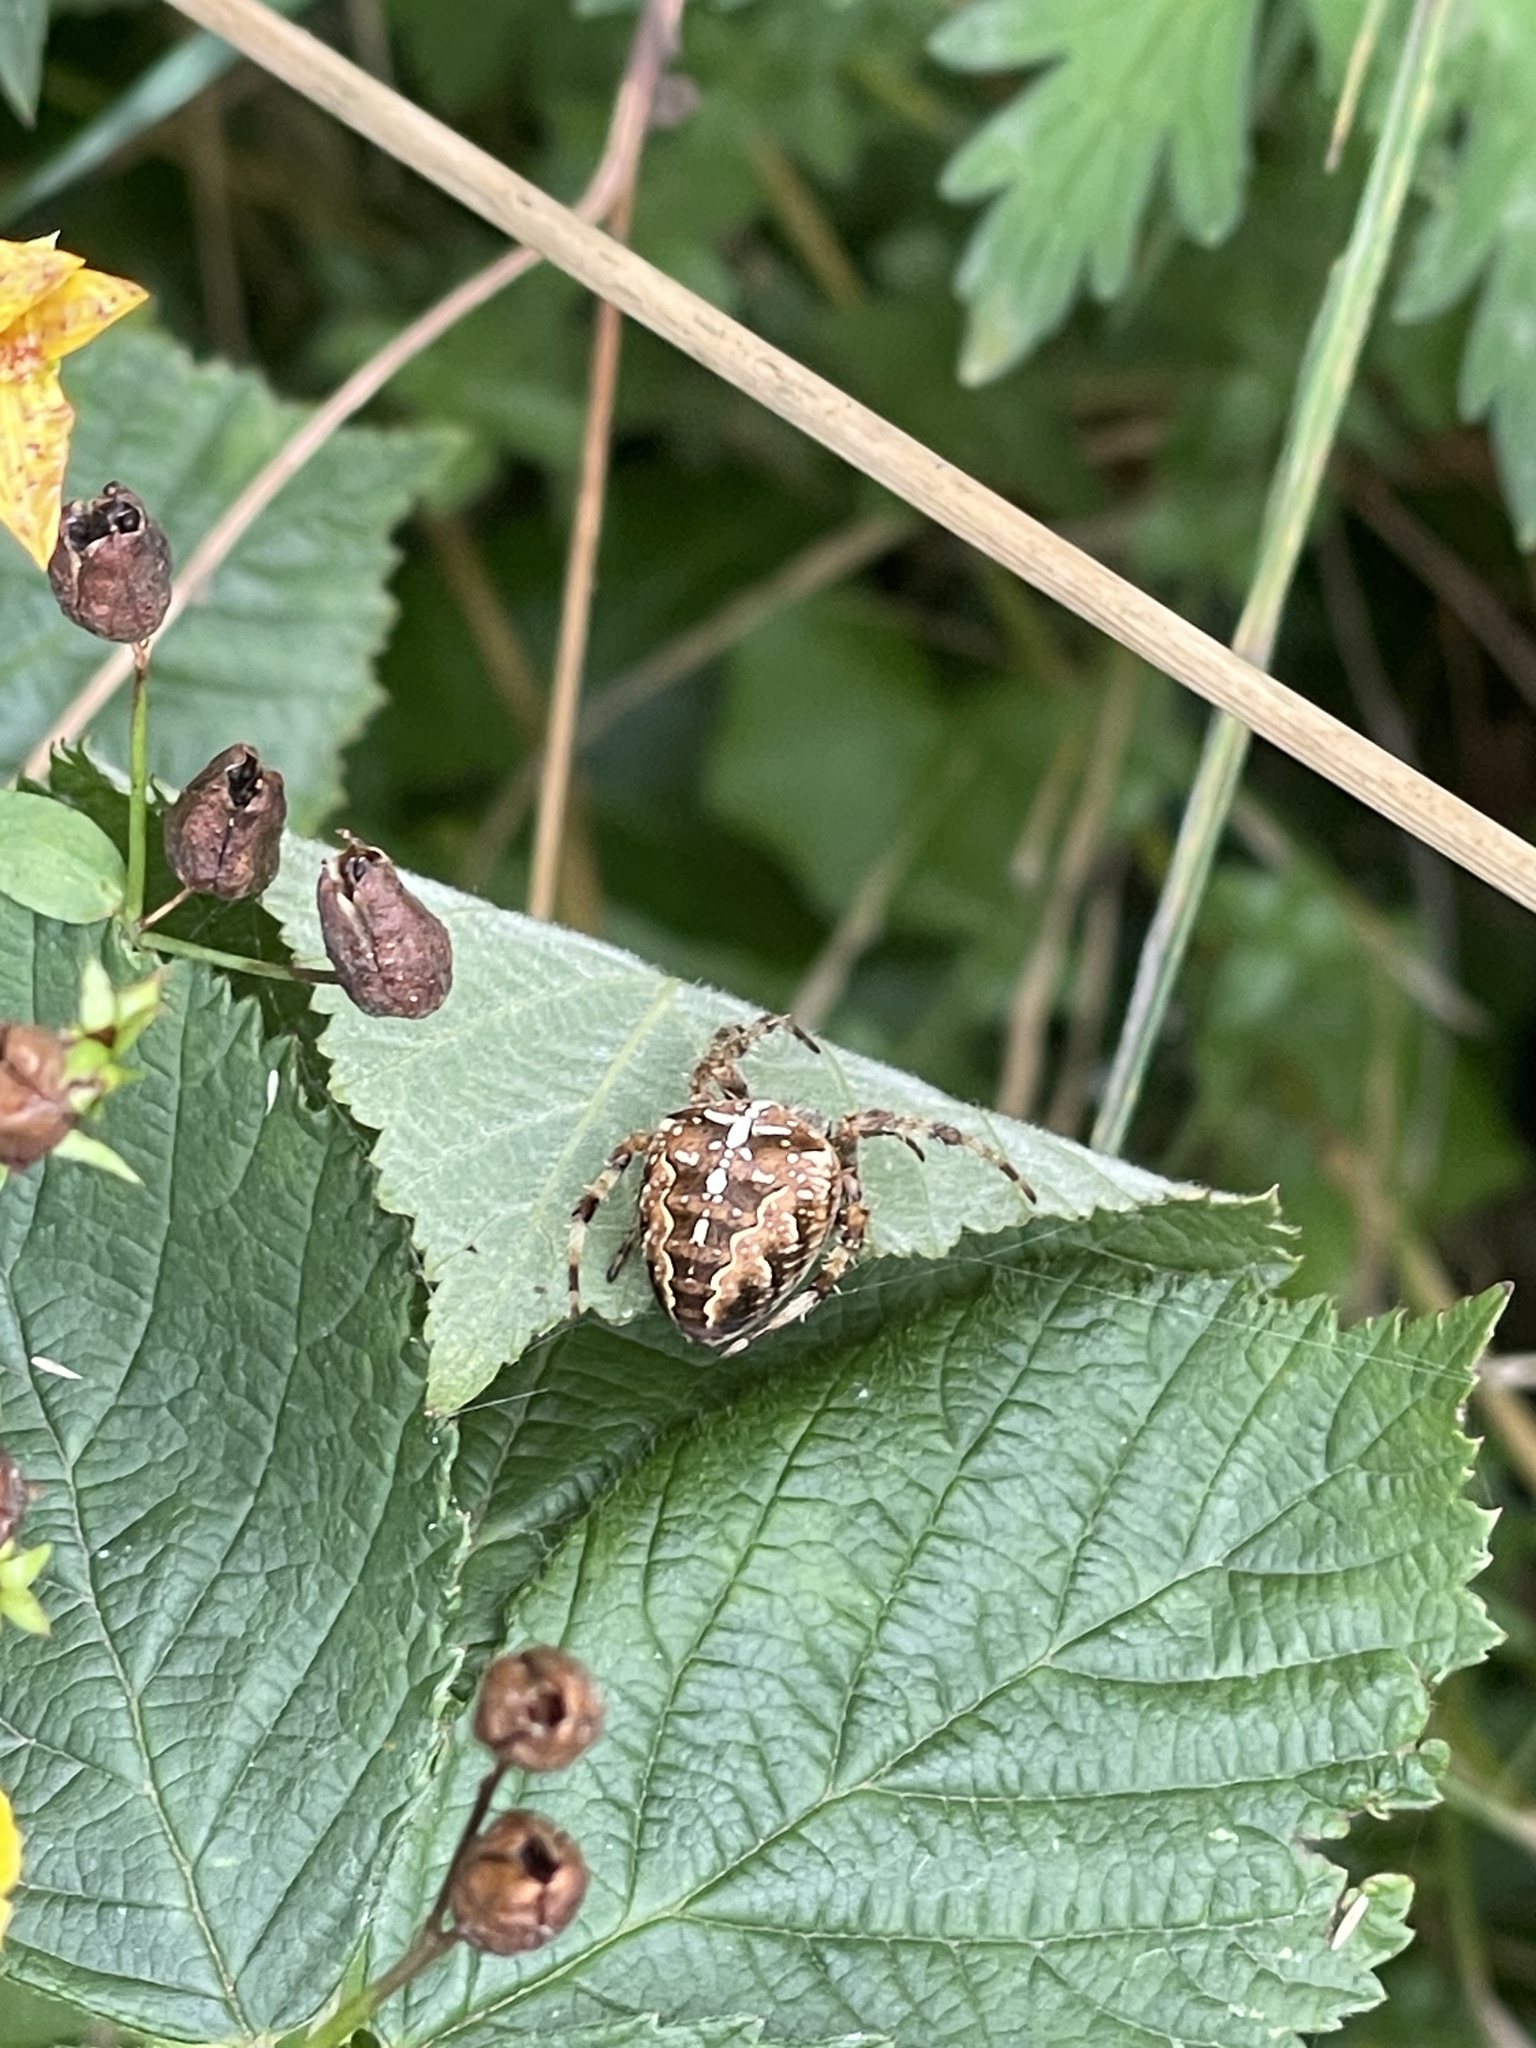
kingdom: Animalia
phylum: Arthropoda
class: Arachnida
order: Araneae
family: Araneidae
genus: Araneus
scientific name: Araneus diadematus
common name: Cross orbweaver
